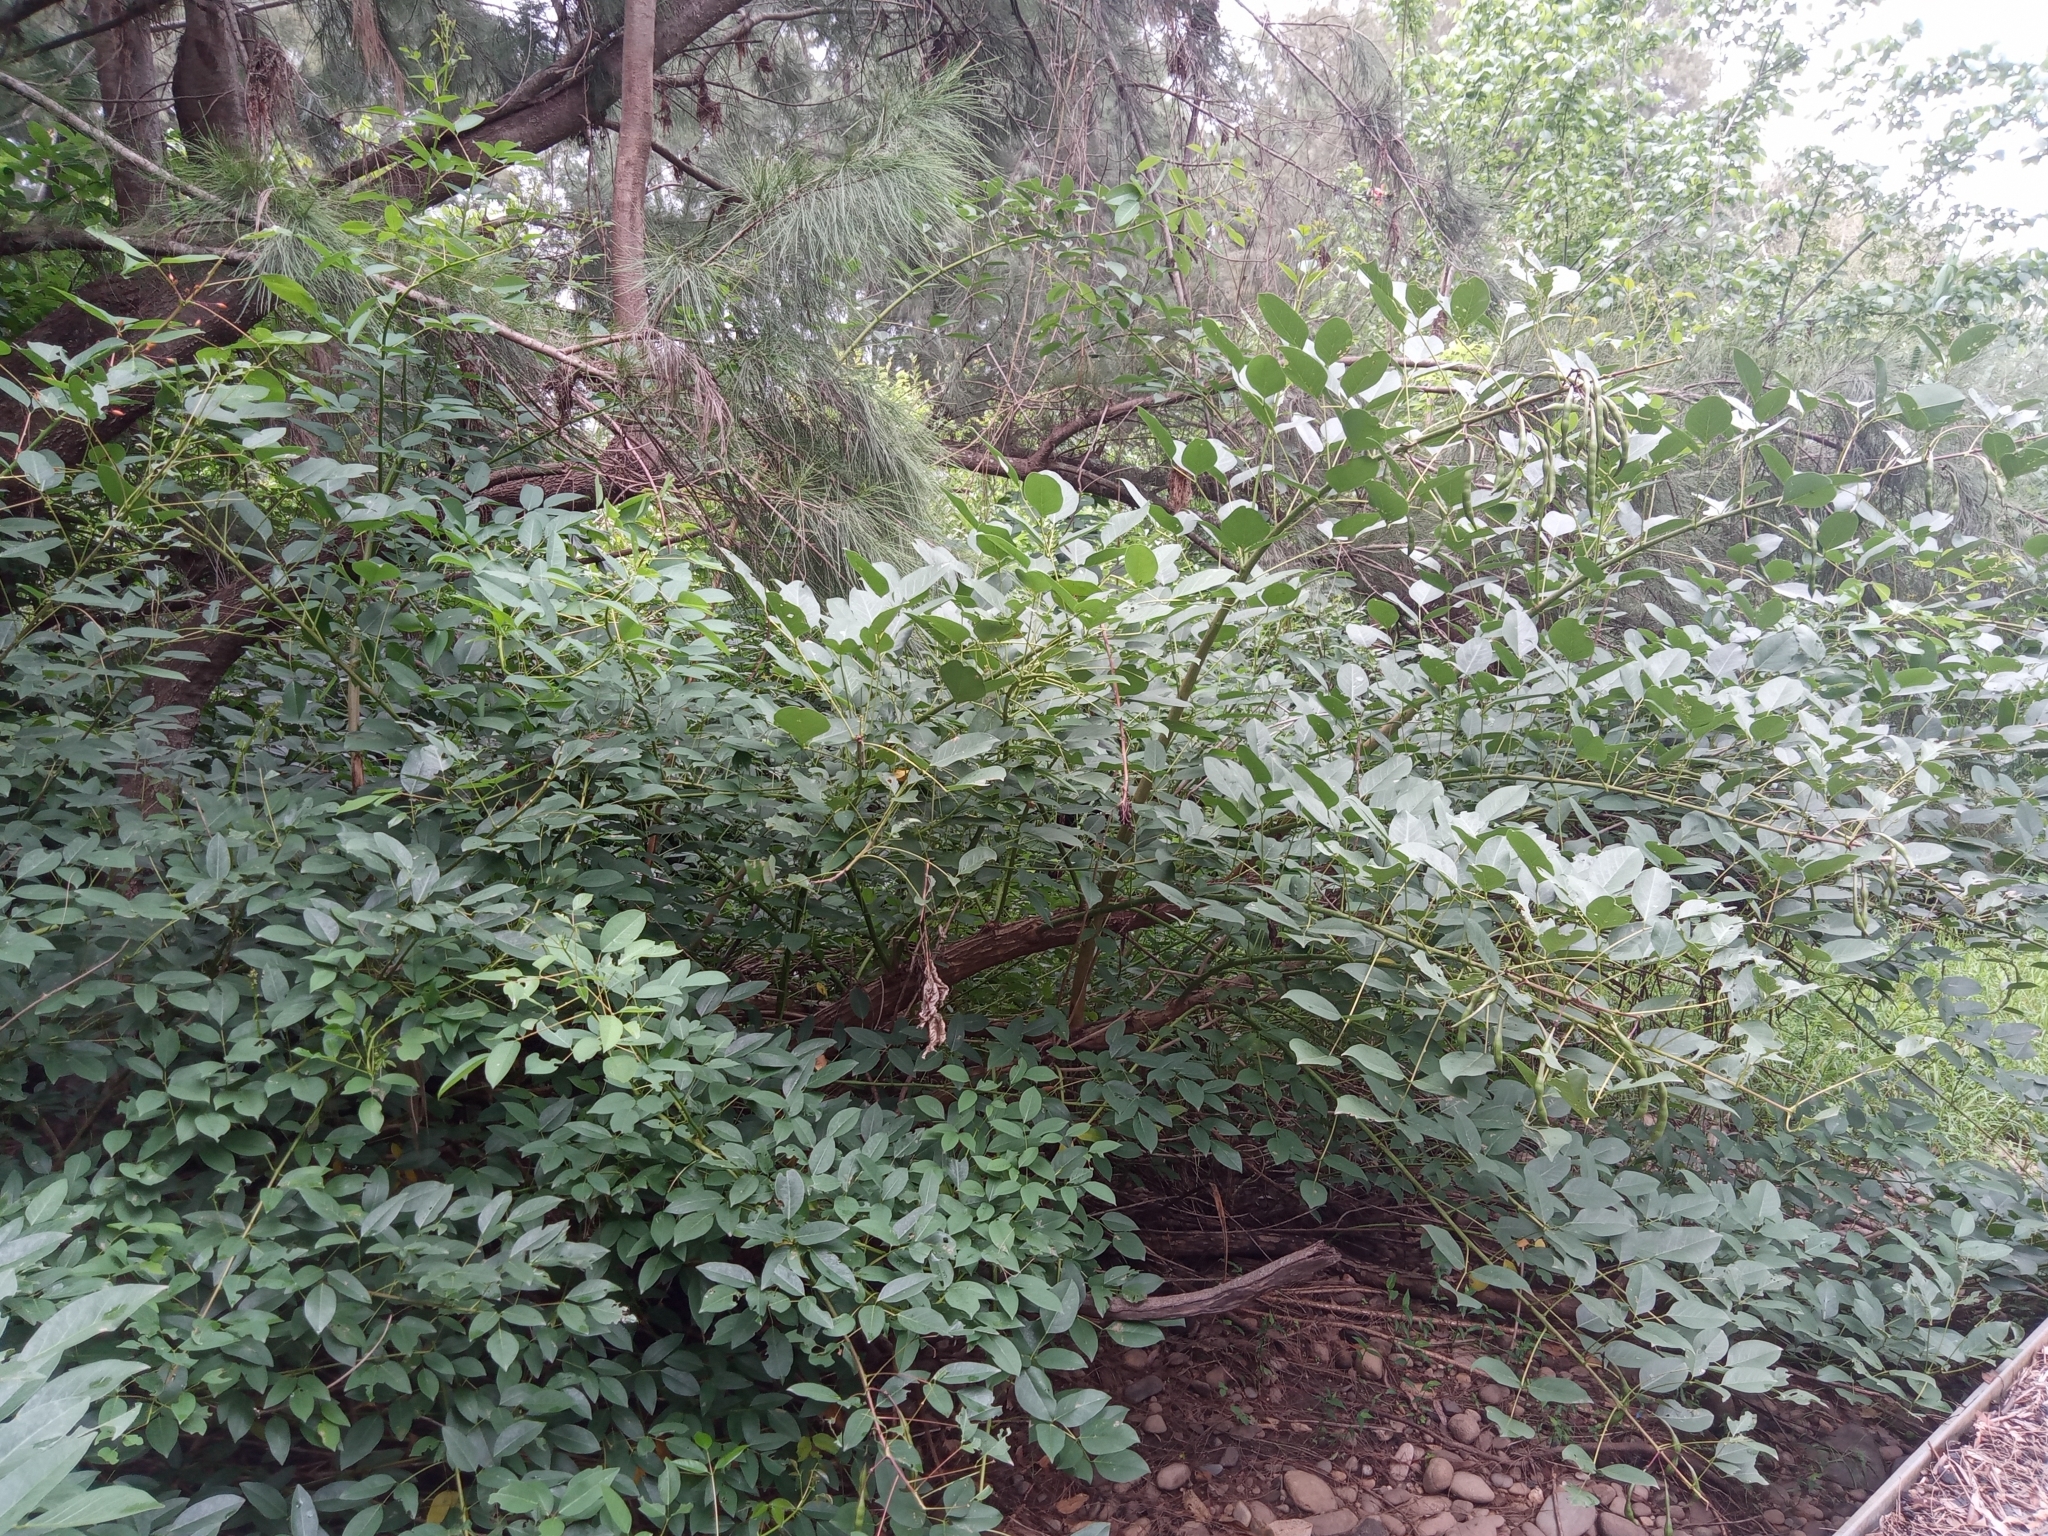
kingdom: Plantae
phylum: Tracheophyta
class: Magnoliopsida
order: Fabales
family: Fabaceae
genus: Erythrina
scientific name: Erythrina crista-galli
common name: Cockspur coral tree
